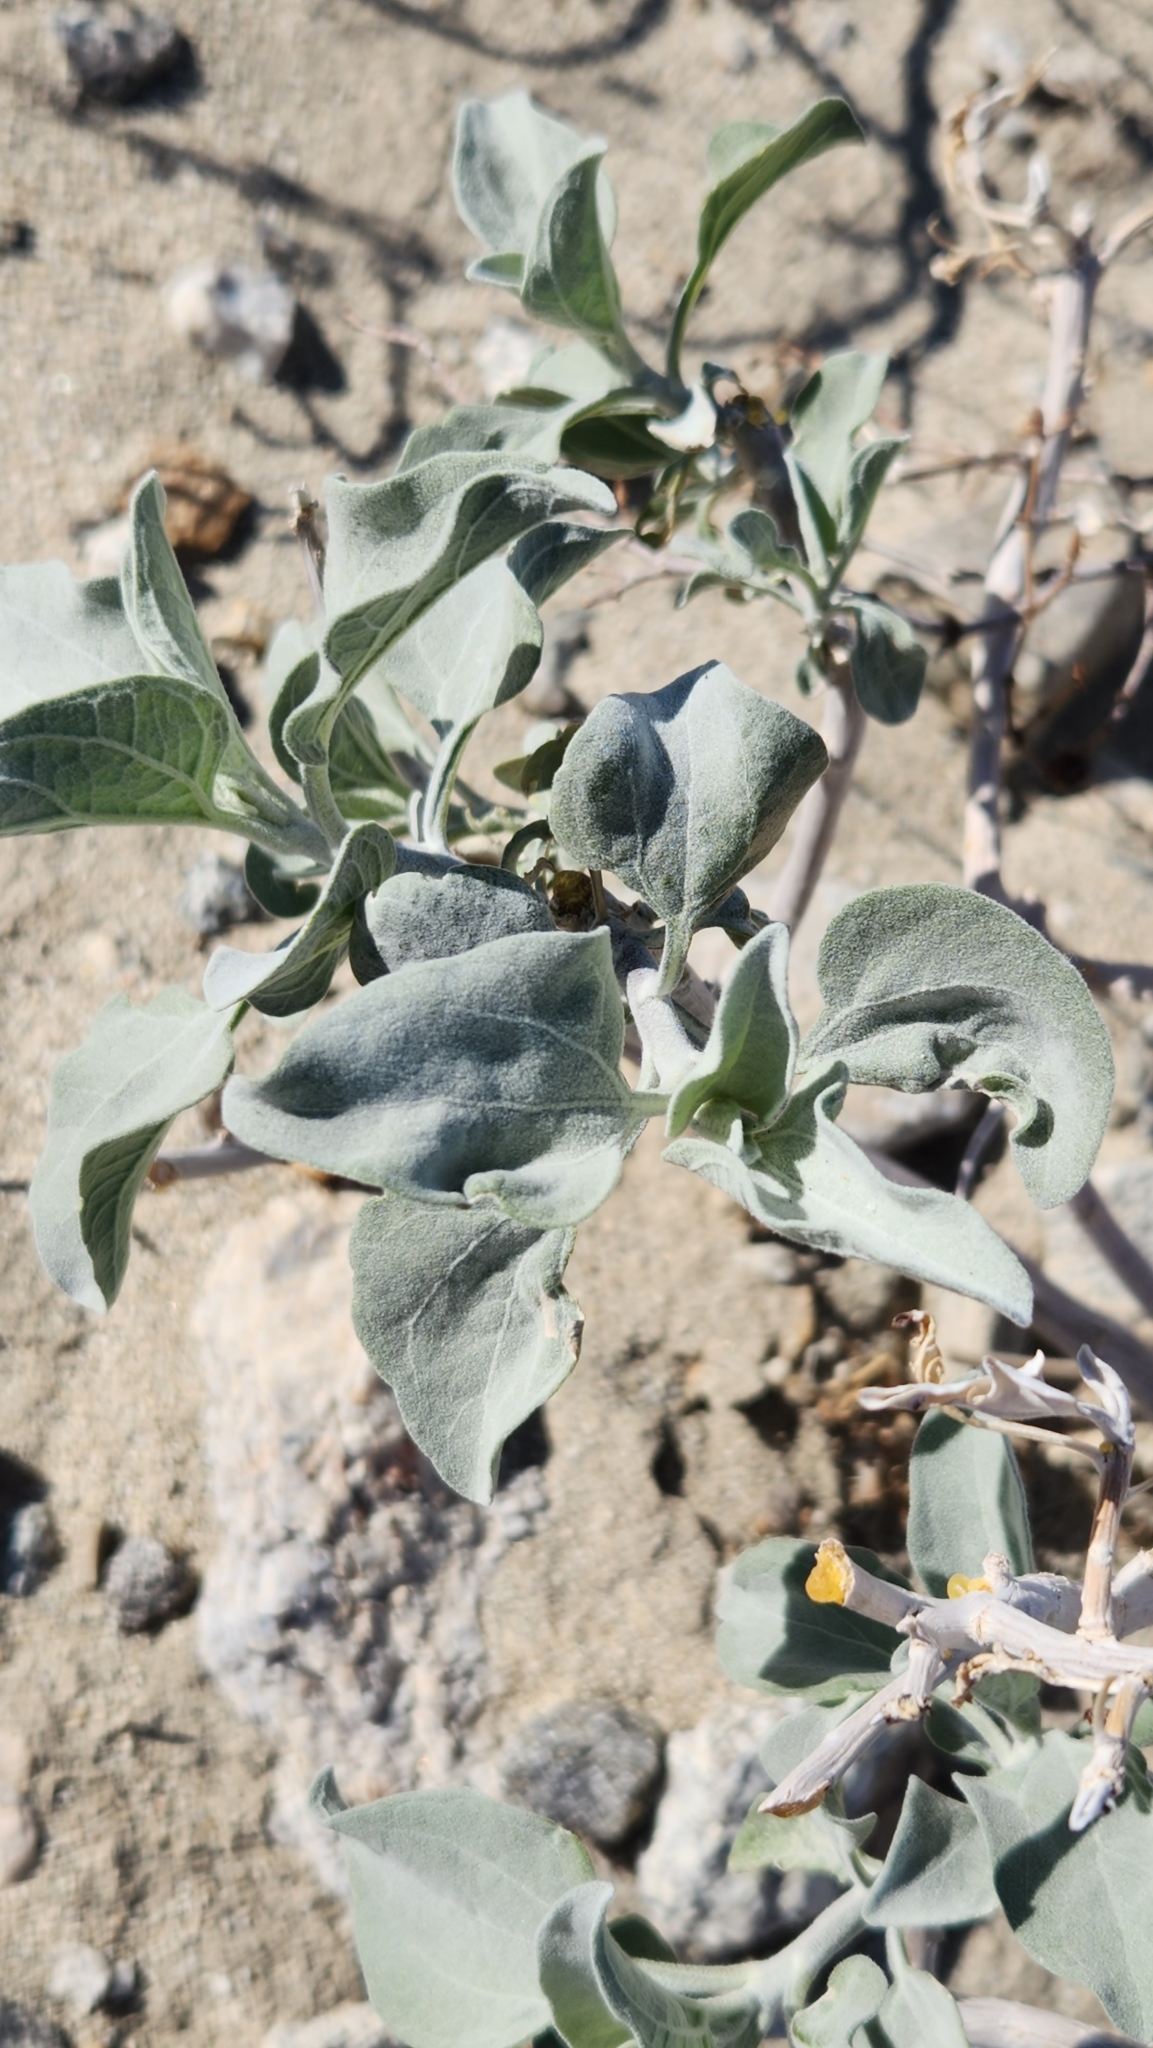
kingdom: Plantae
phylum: Tracheophyta
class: Magnoliopsida
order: Asterales
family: Asteraceae
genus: Encelia
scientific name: Encelia farinosa
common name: Brittlebush
